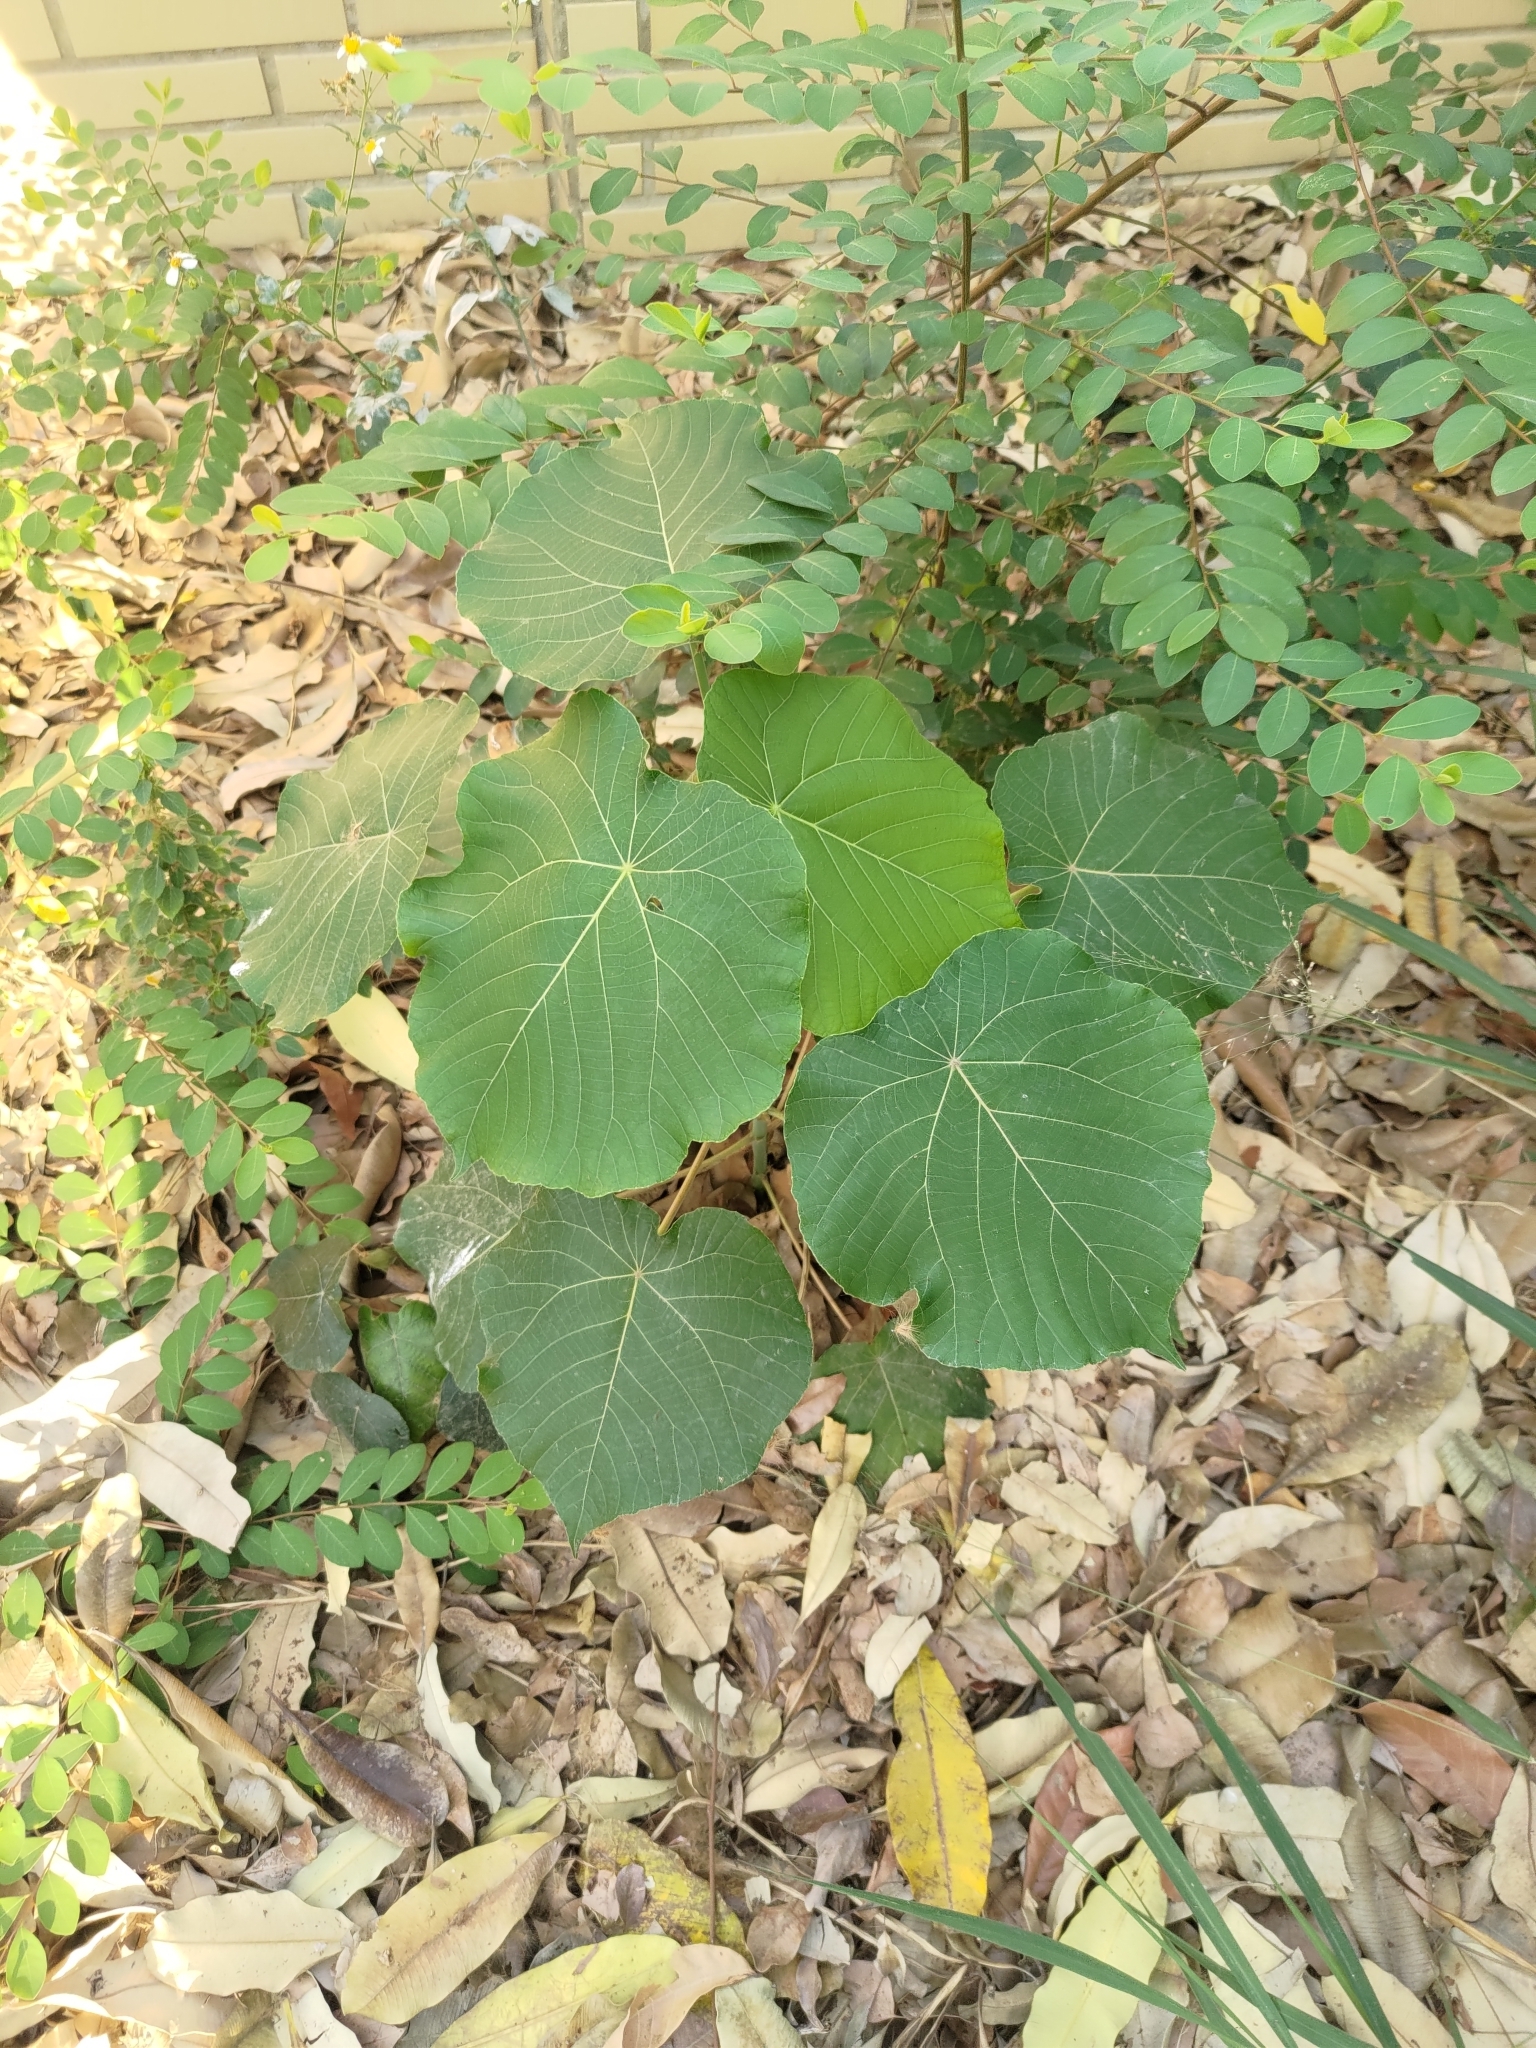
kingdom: Plantae
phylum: Tracheophyta
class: Magnoliopsida
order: Malpighiales
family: Euphorbiaceae
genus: Macaranga
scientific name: Macaranga tanarius
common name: Parasol leaf tree
